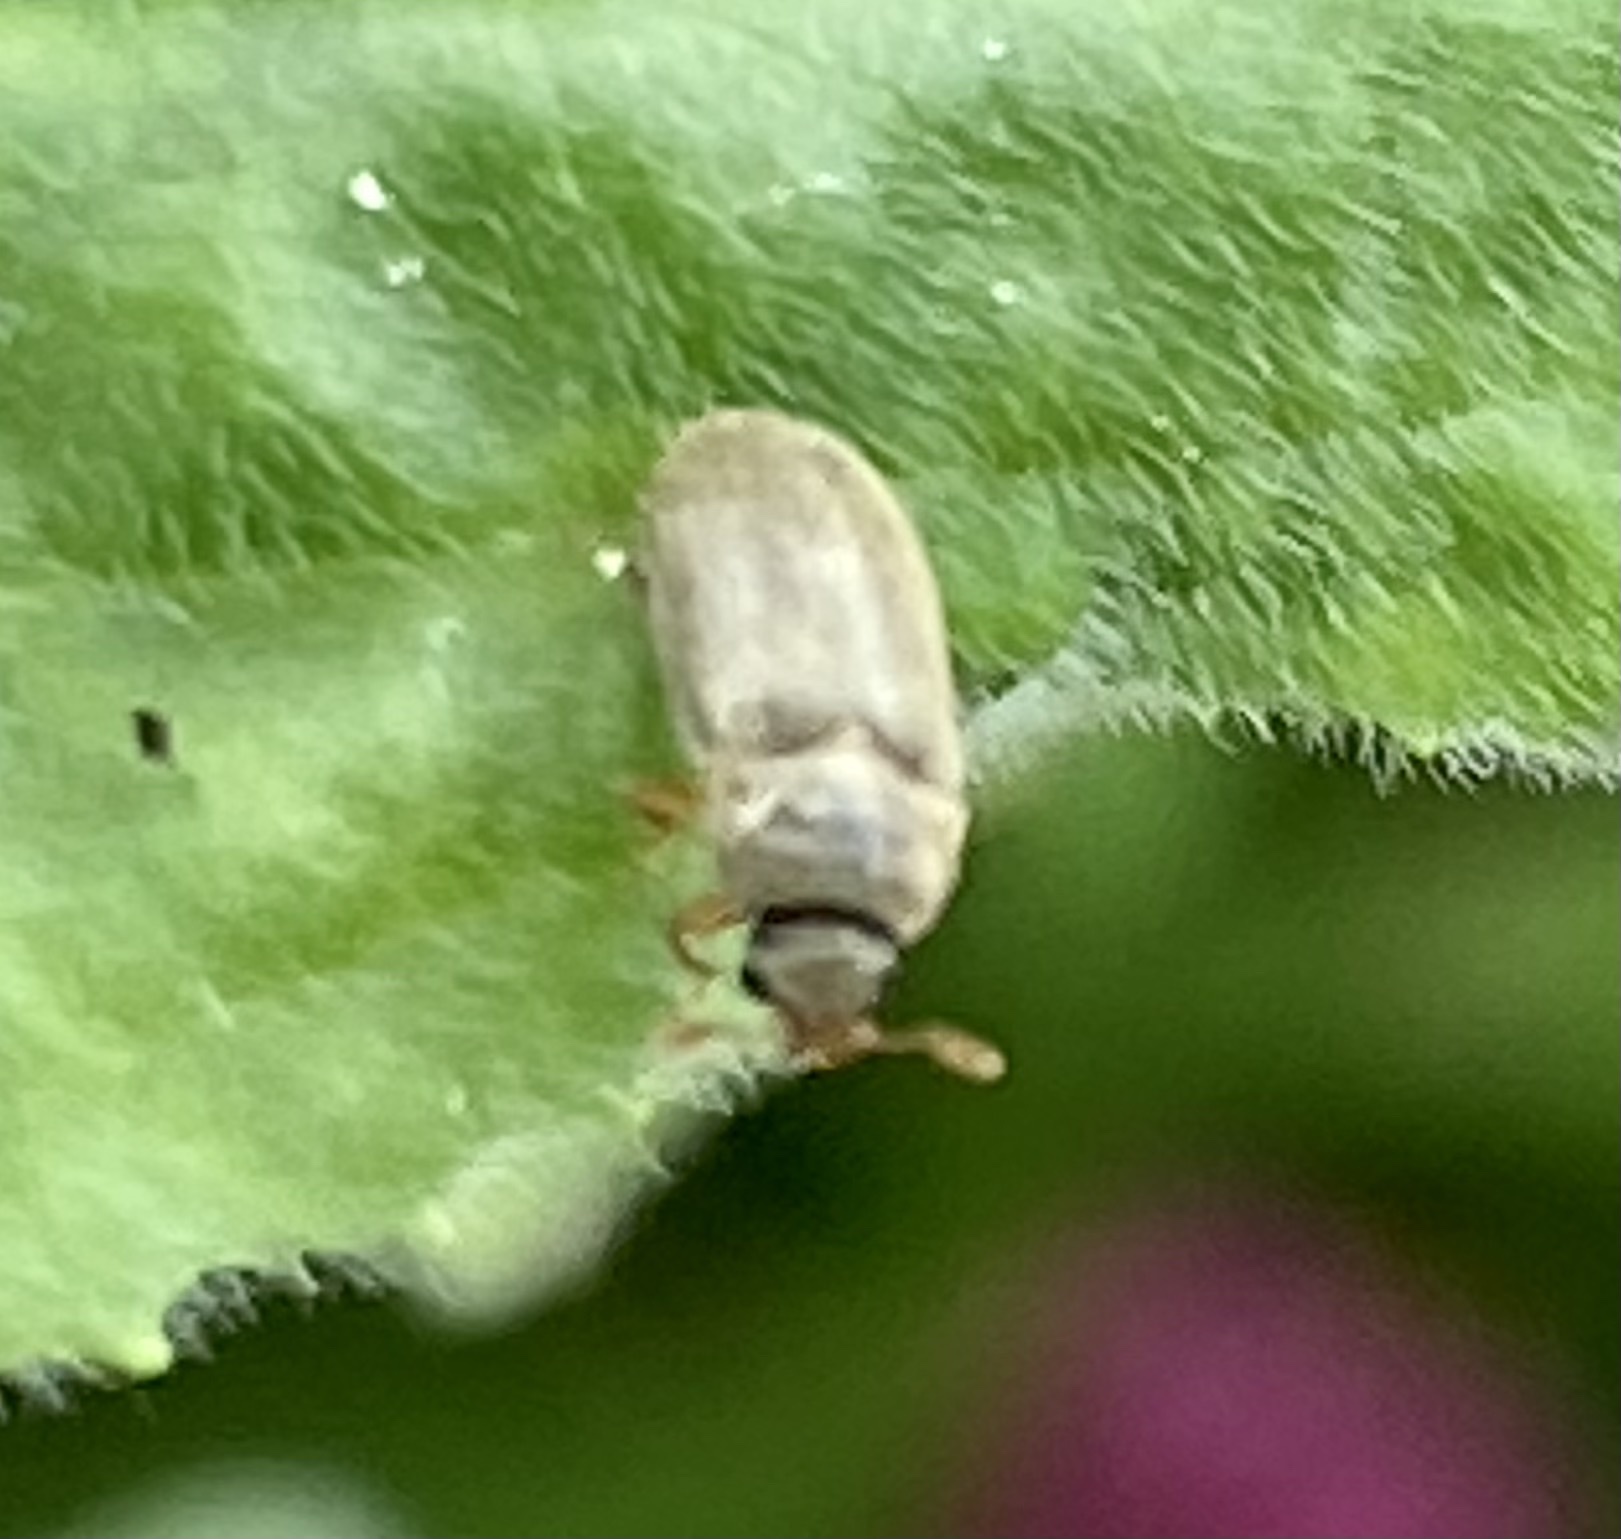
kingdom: Animalia
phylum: Arthropoda
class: Insecta
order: Coleoptera
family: Byturidae
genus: Byturus
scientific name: Byturus tomentosus
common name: Beetle
